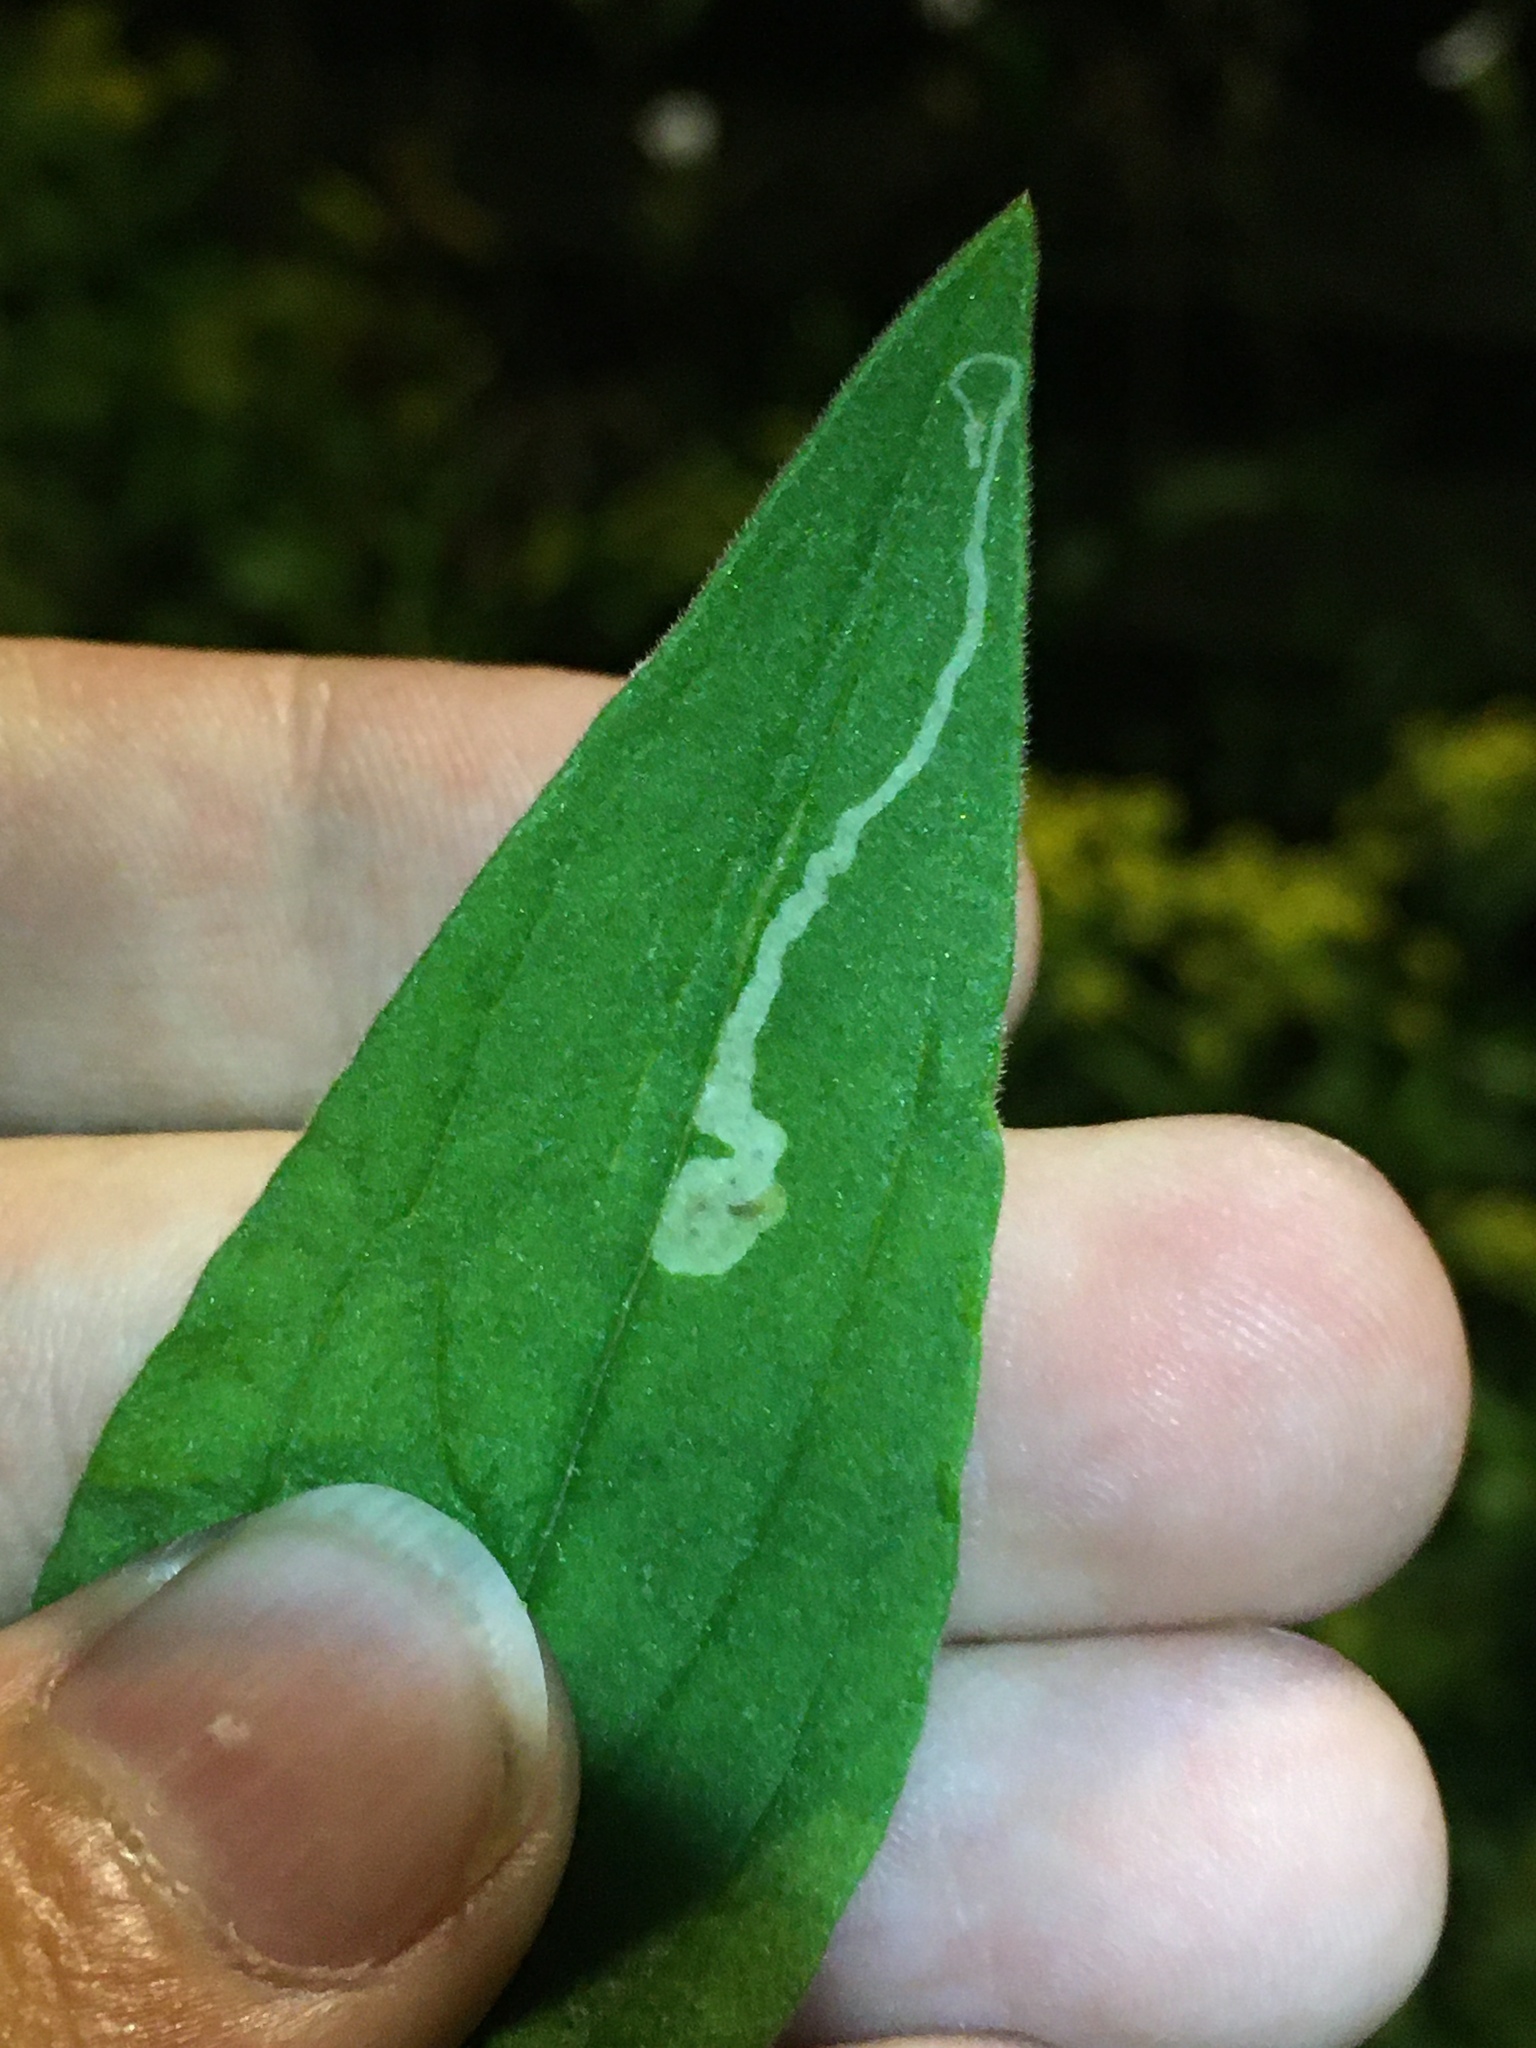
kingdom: Animalia
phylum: Arthropoda
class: Insecta
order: Diptera
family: Agromyzidae
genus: Amauromyza
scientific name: Amauromyza flavifrons
